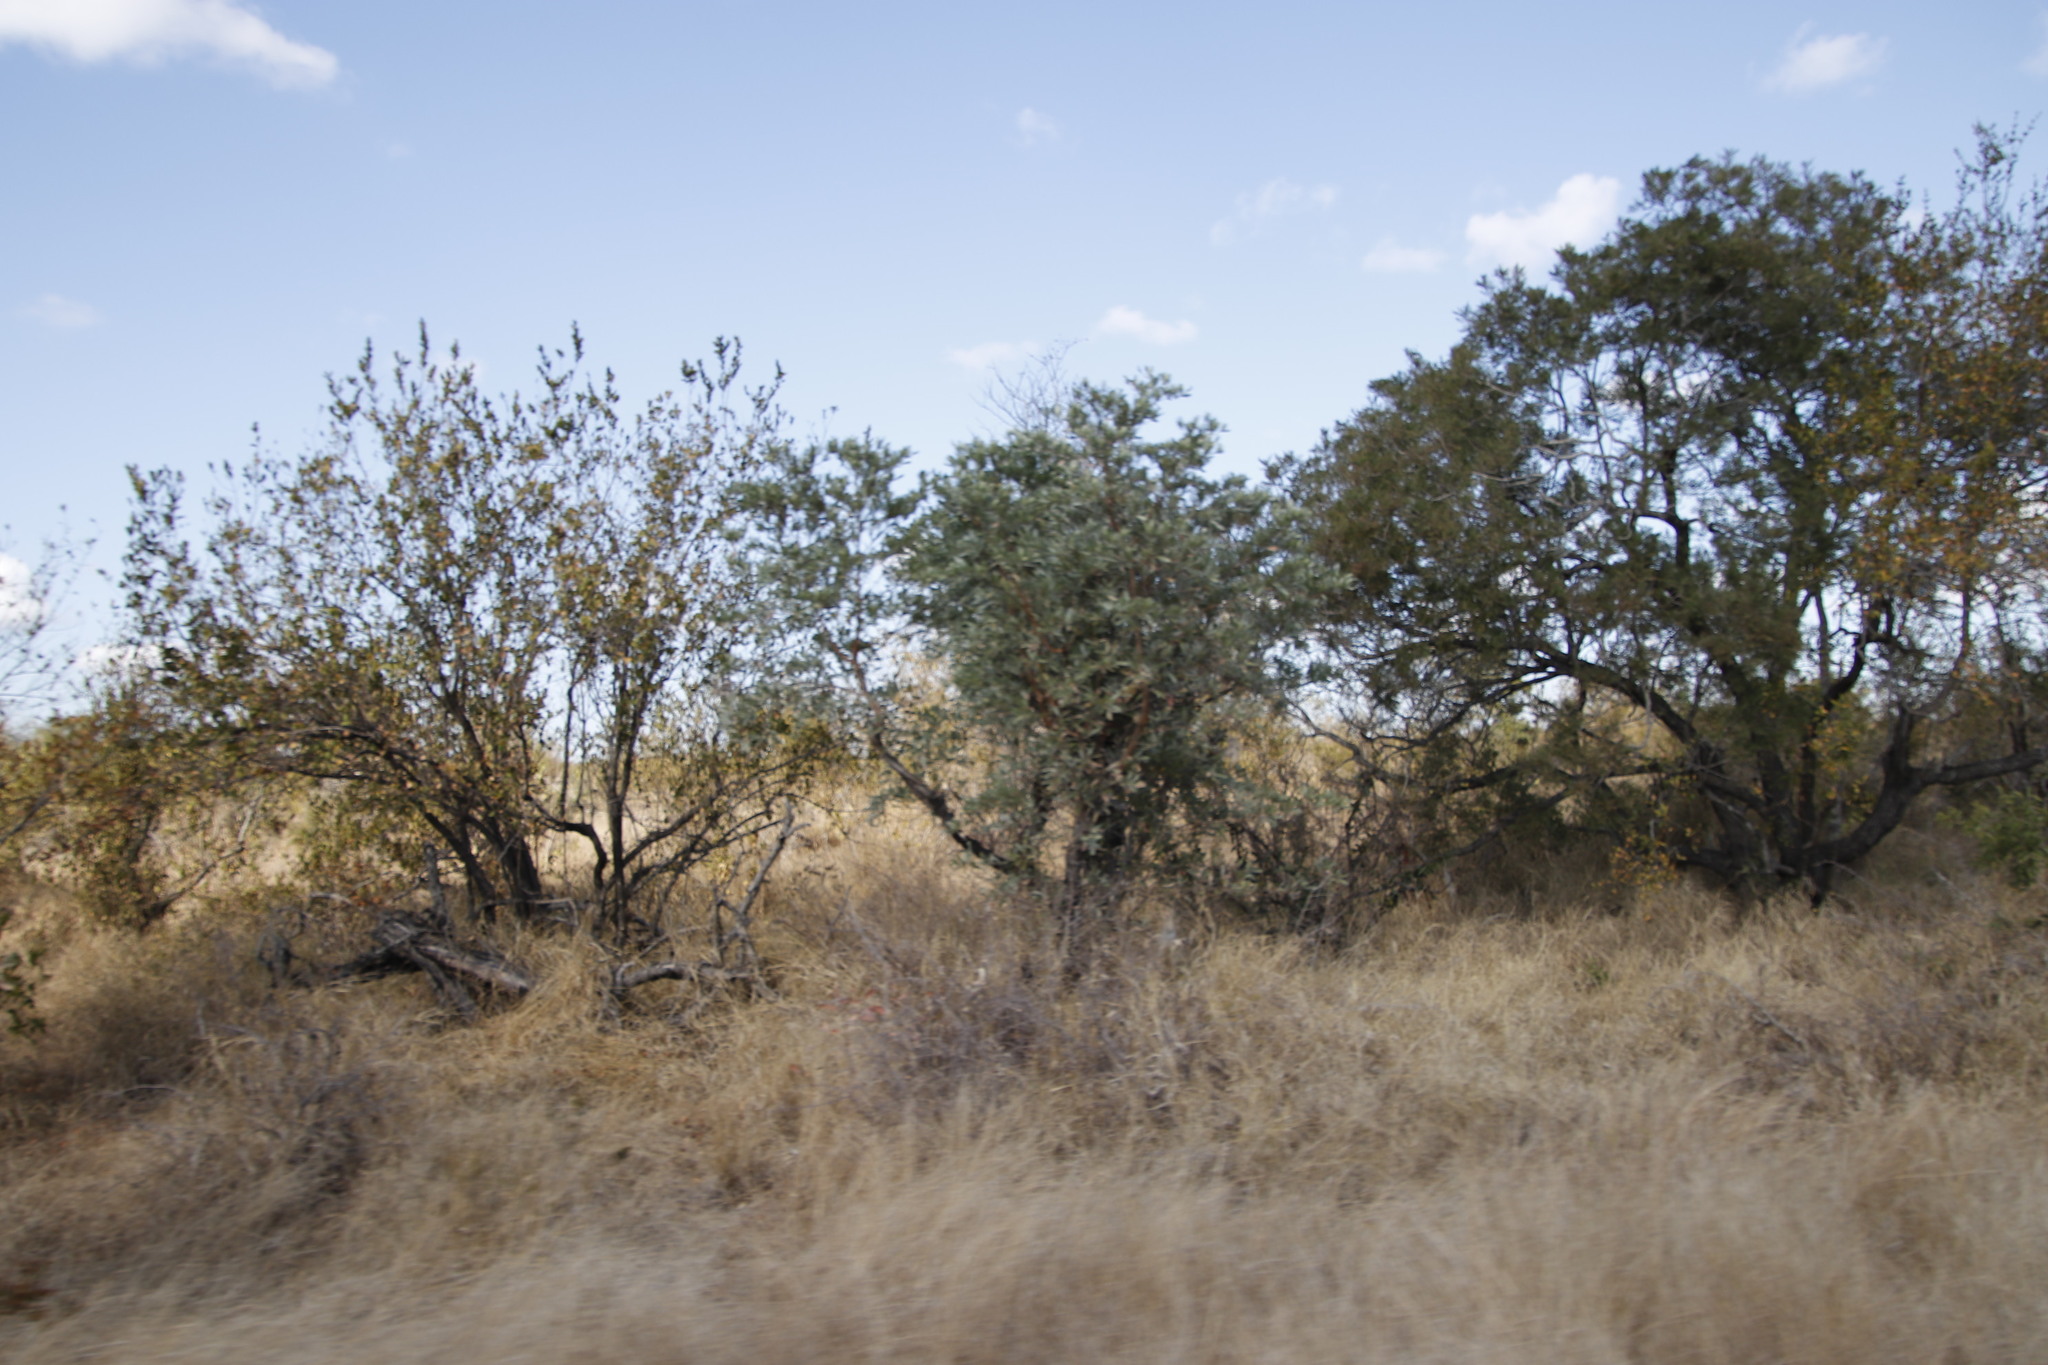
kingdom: Plantae
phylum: Tracheophyta
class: Magnoliopsida
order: Myrtales
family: Combretaceae
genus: Combretum
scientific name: Combretum apiculatum
